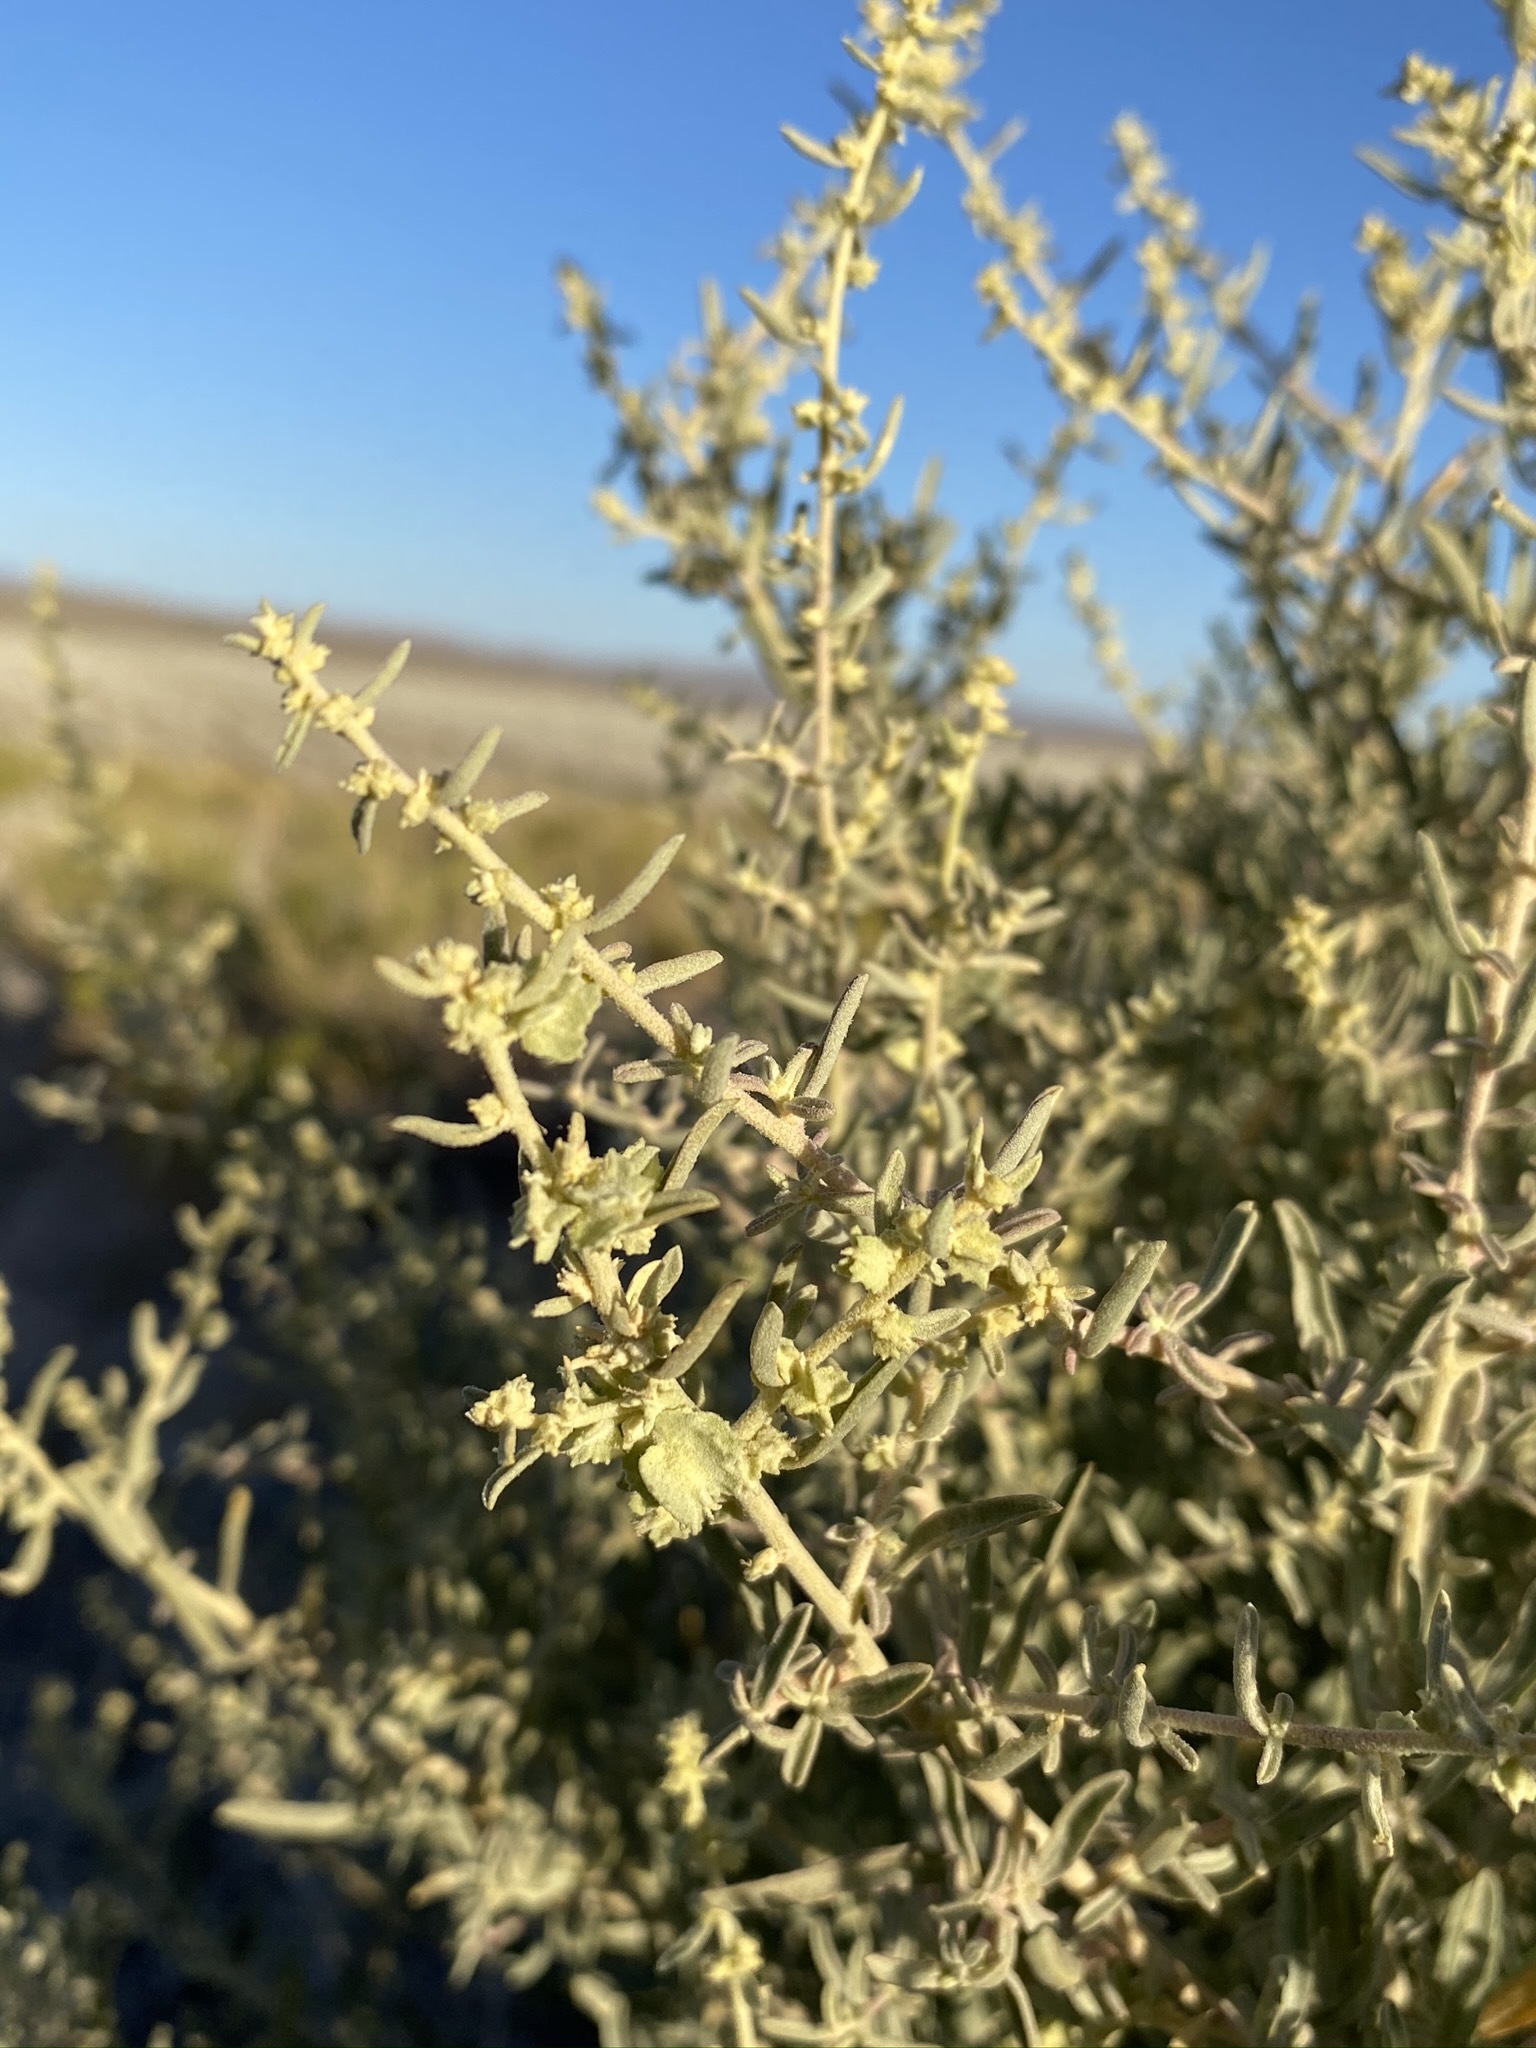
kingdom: Plantae
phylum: Tracheophyta
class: Magnoliopsida
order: Caryophyllales
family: Amaranthaceae
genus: Atriplex
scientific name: Atriplex canescens
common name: Four-wing saltbush
